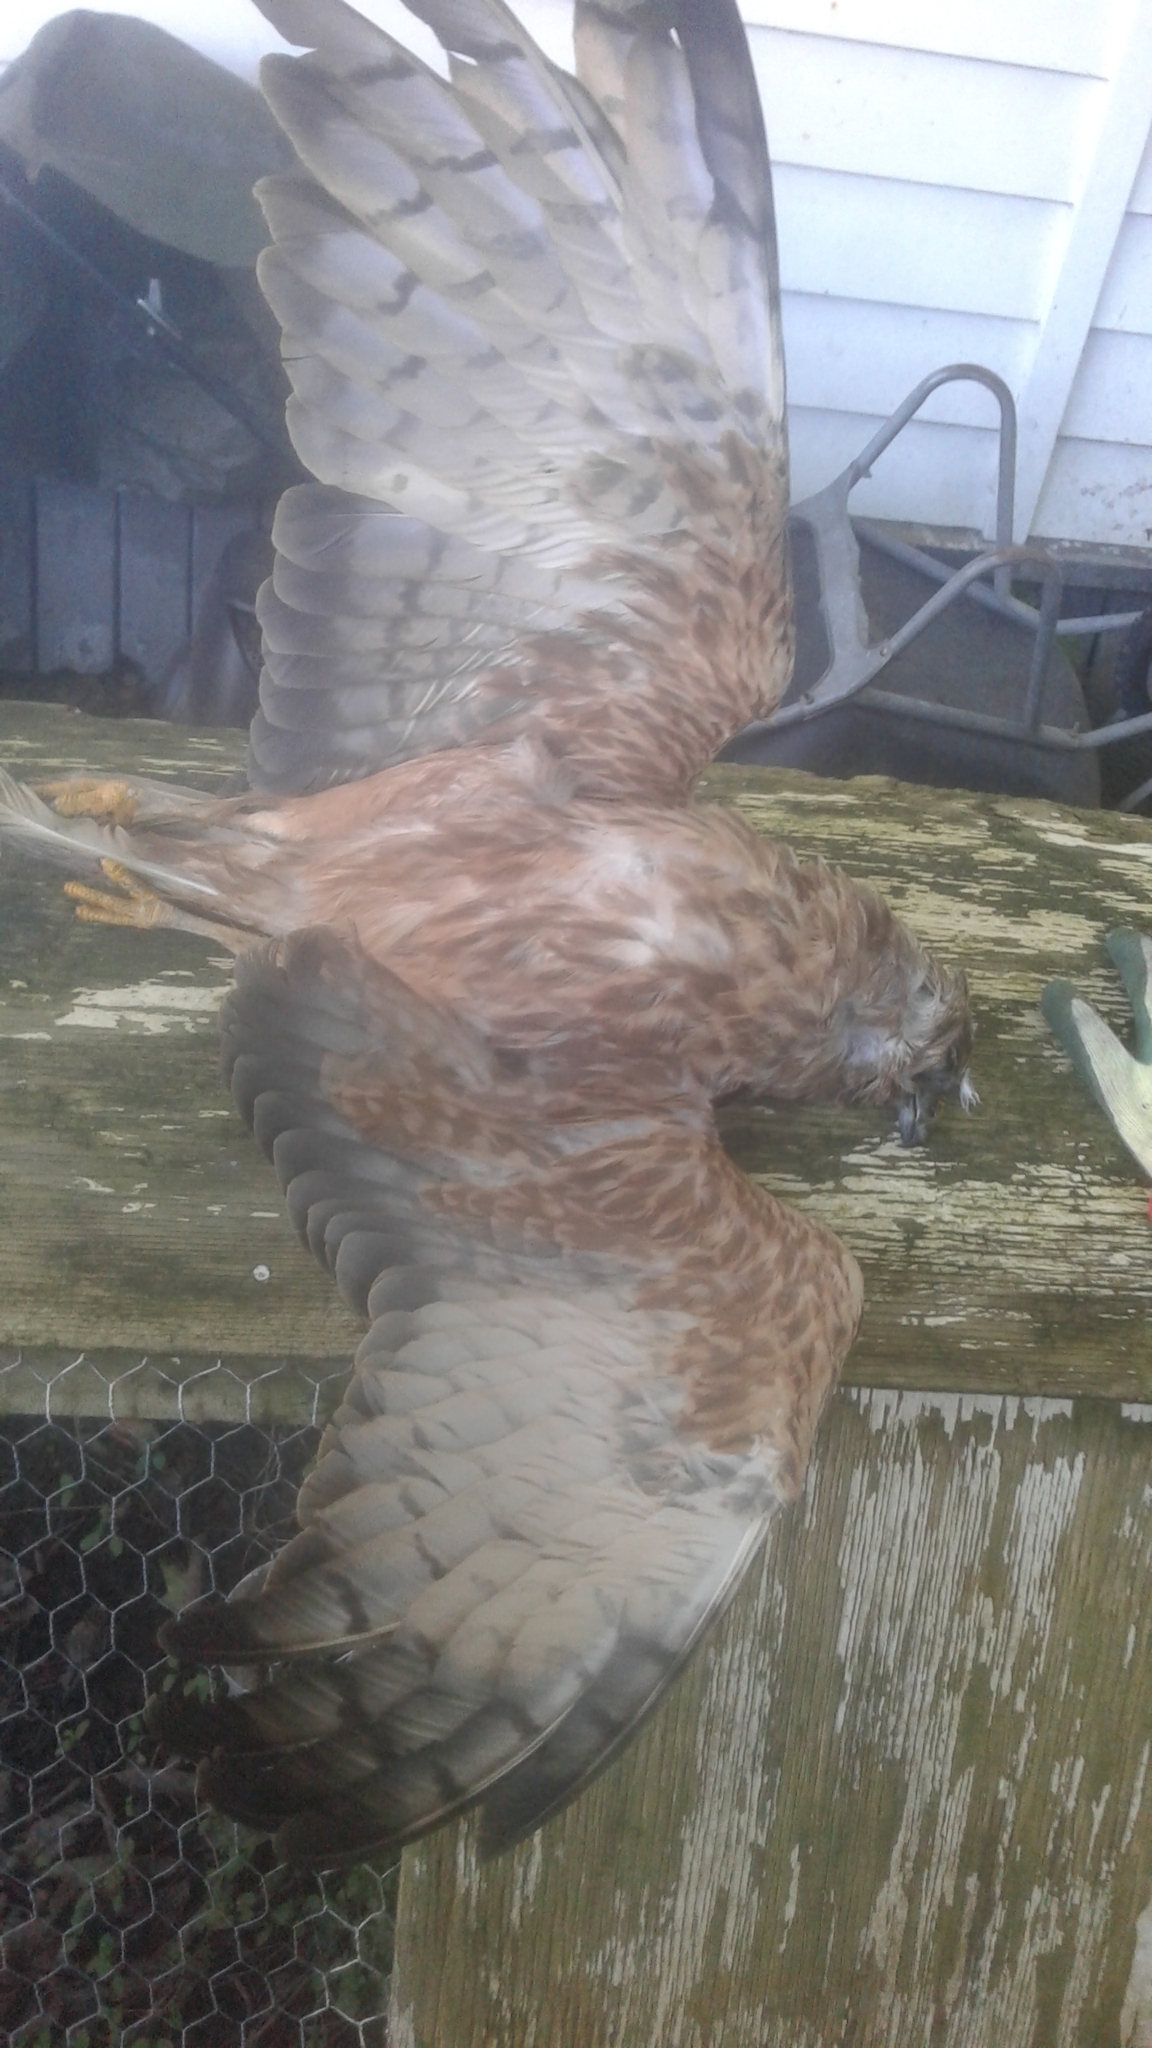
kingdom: Animalia
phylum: Chordata
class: Aves
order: Accipitriformes
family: Accipitridae
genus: Circus
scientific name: Circus approximans
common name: Swamp harrier
